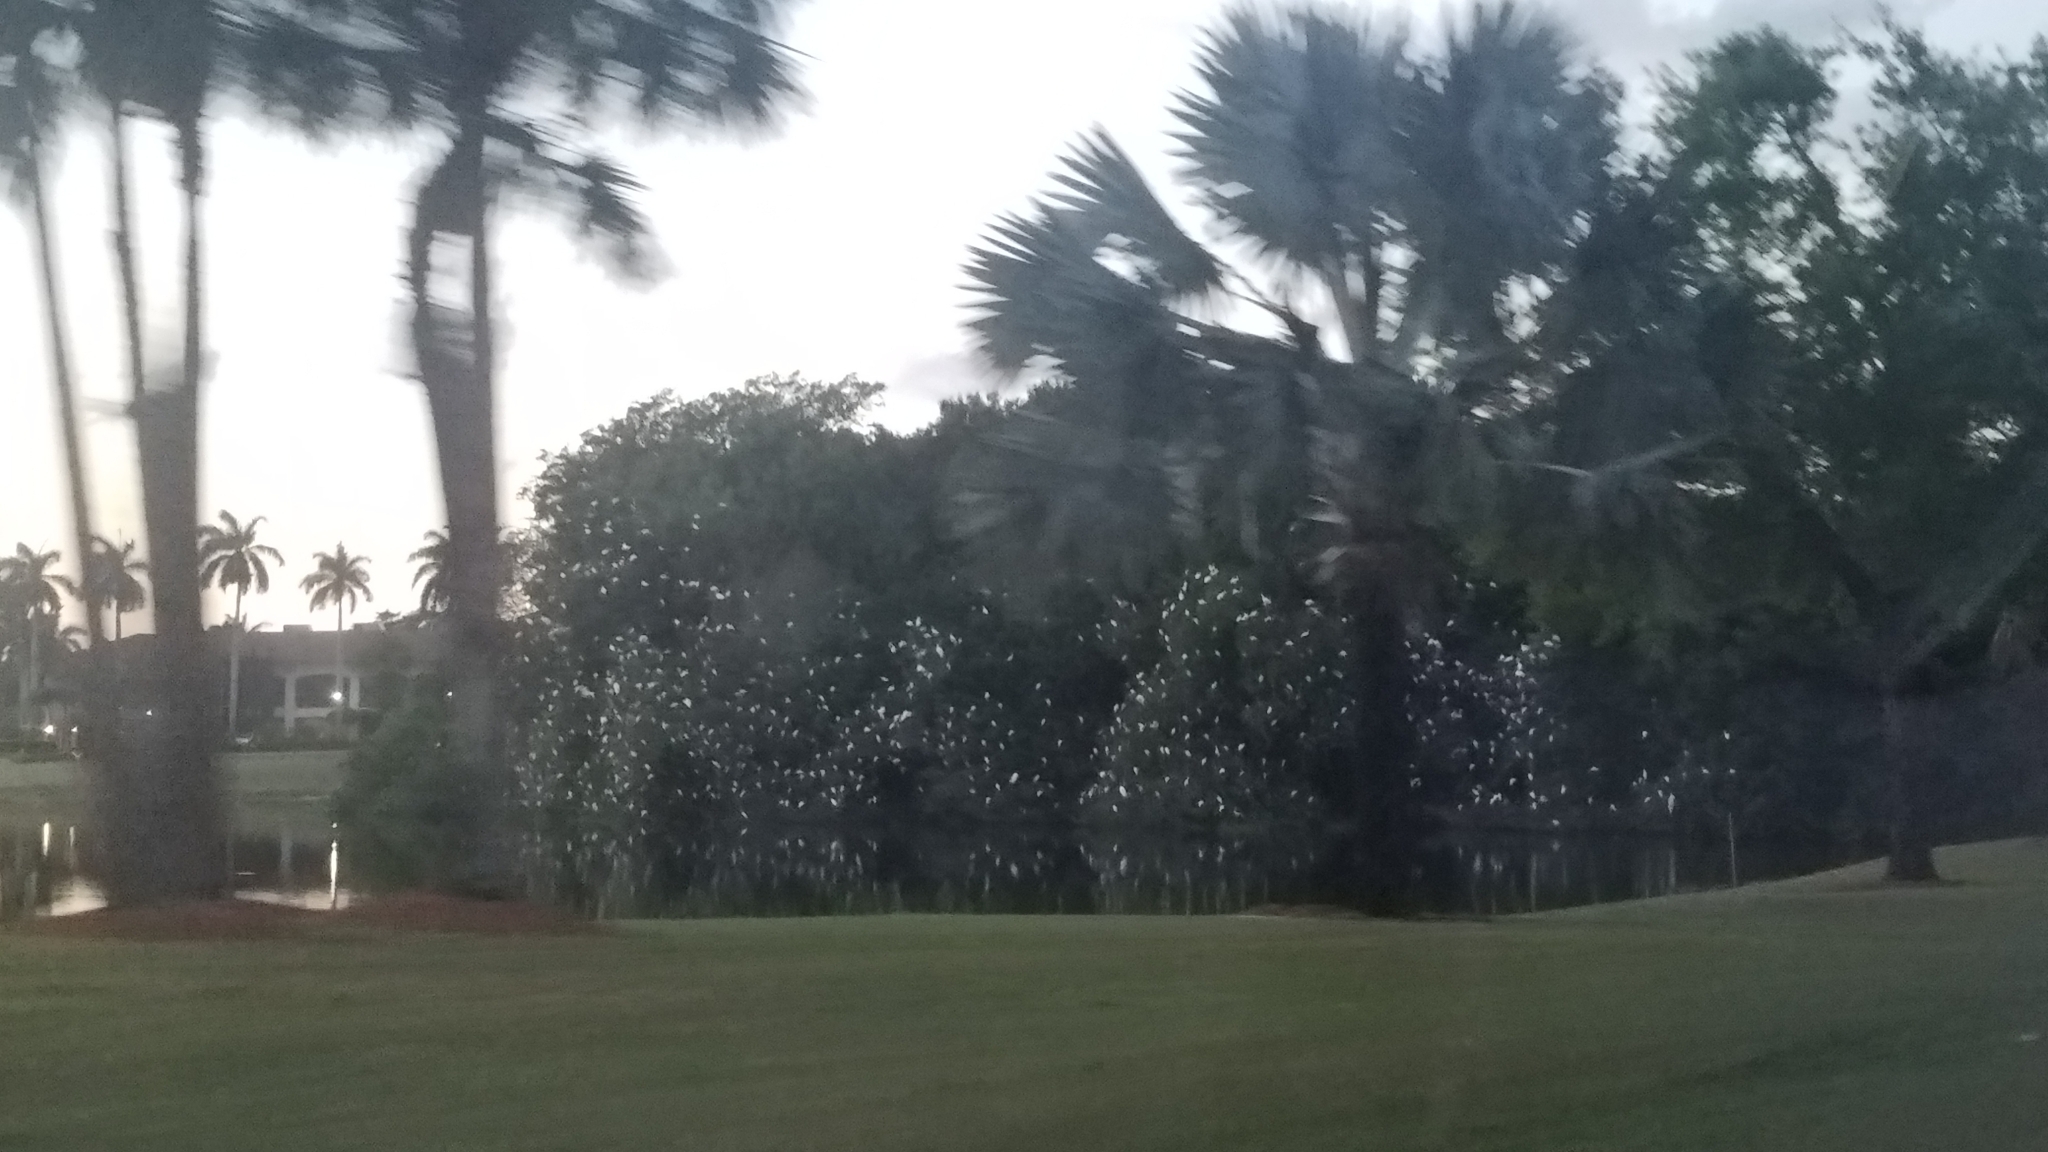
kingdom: Animalia
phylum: Chordata
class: Aves
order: Pelecaniformes
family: Threskiornithidae
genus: Eudocimus
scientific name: Eudocimus albus
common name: White ibis
